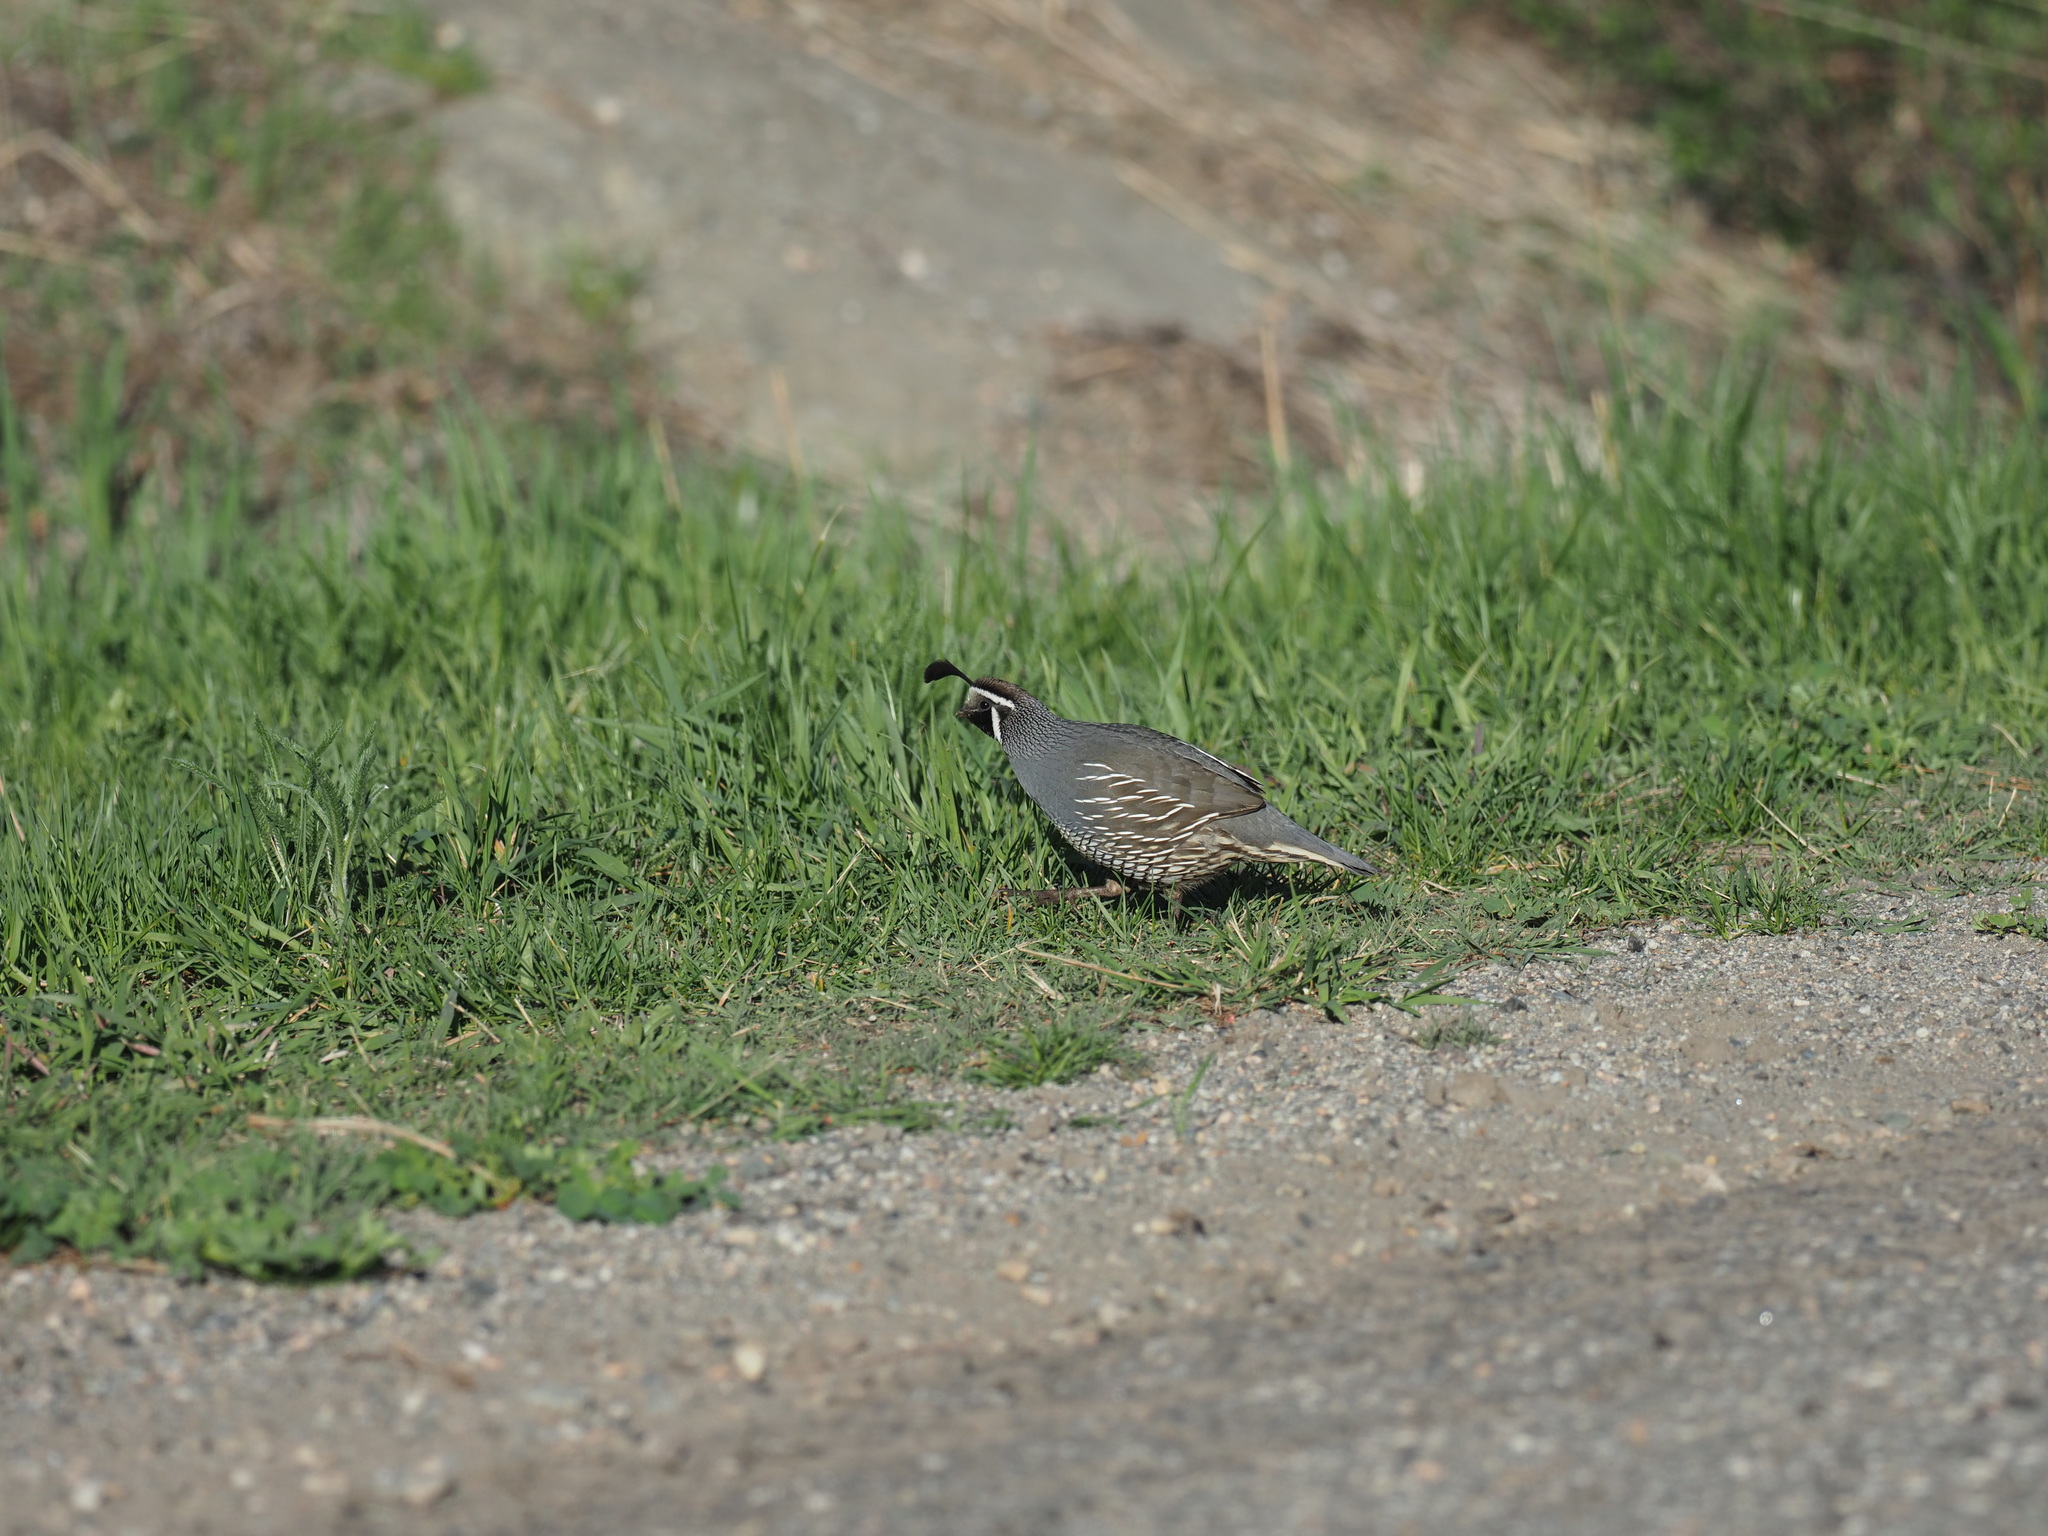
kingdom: Animalia
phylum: Chordata
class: Aves
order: Galliformes
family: Odontophoridae
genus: Callipepla
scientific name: Callipepla californica
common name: California quail
